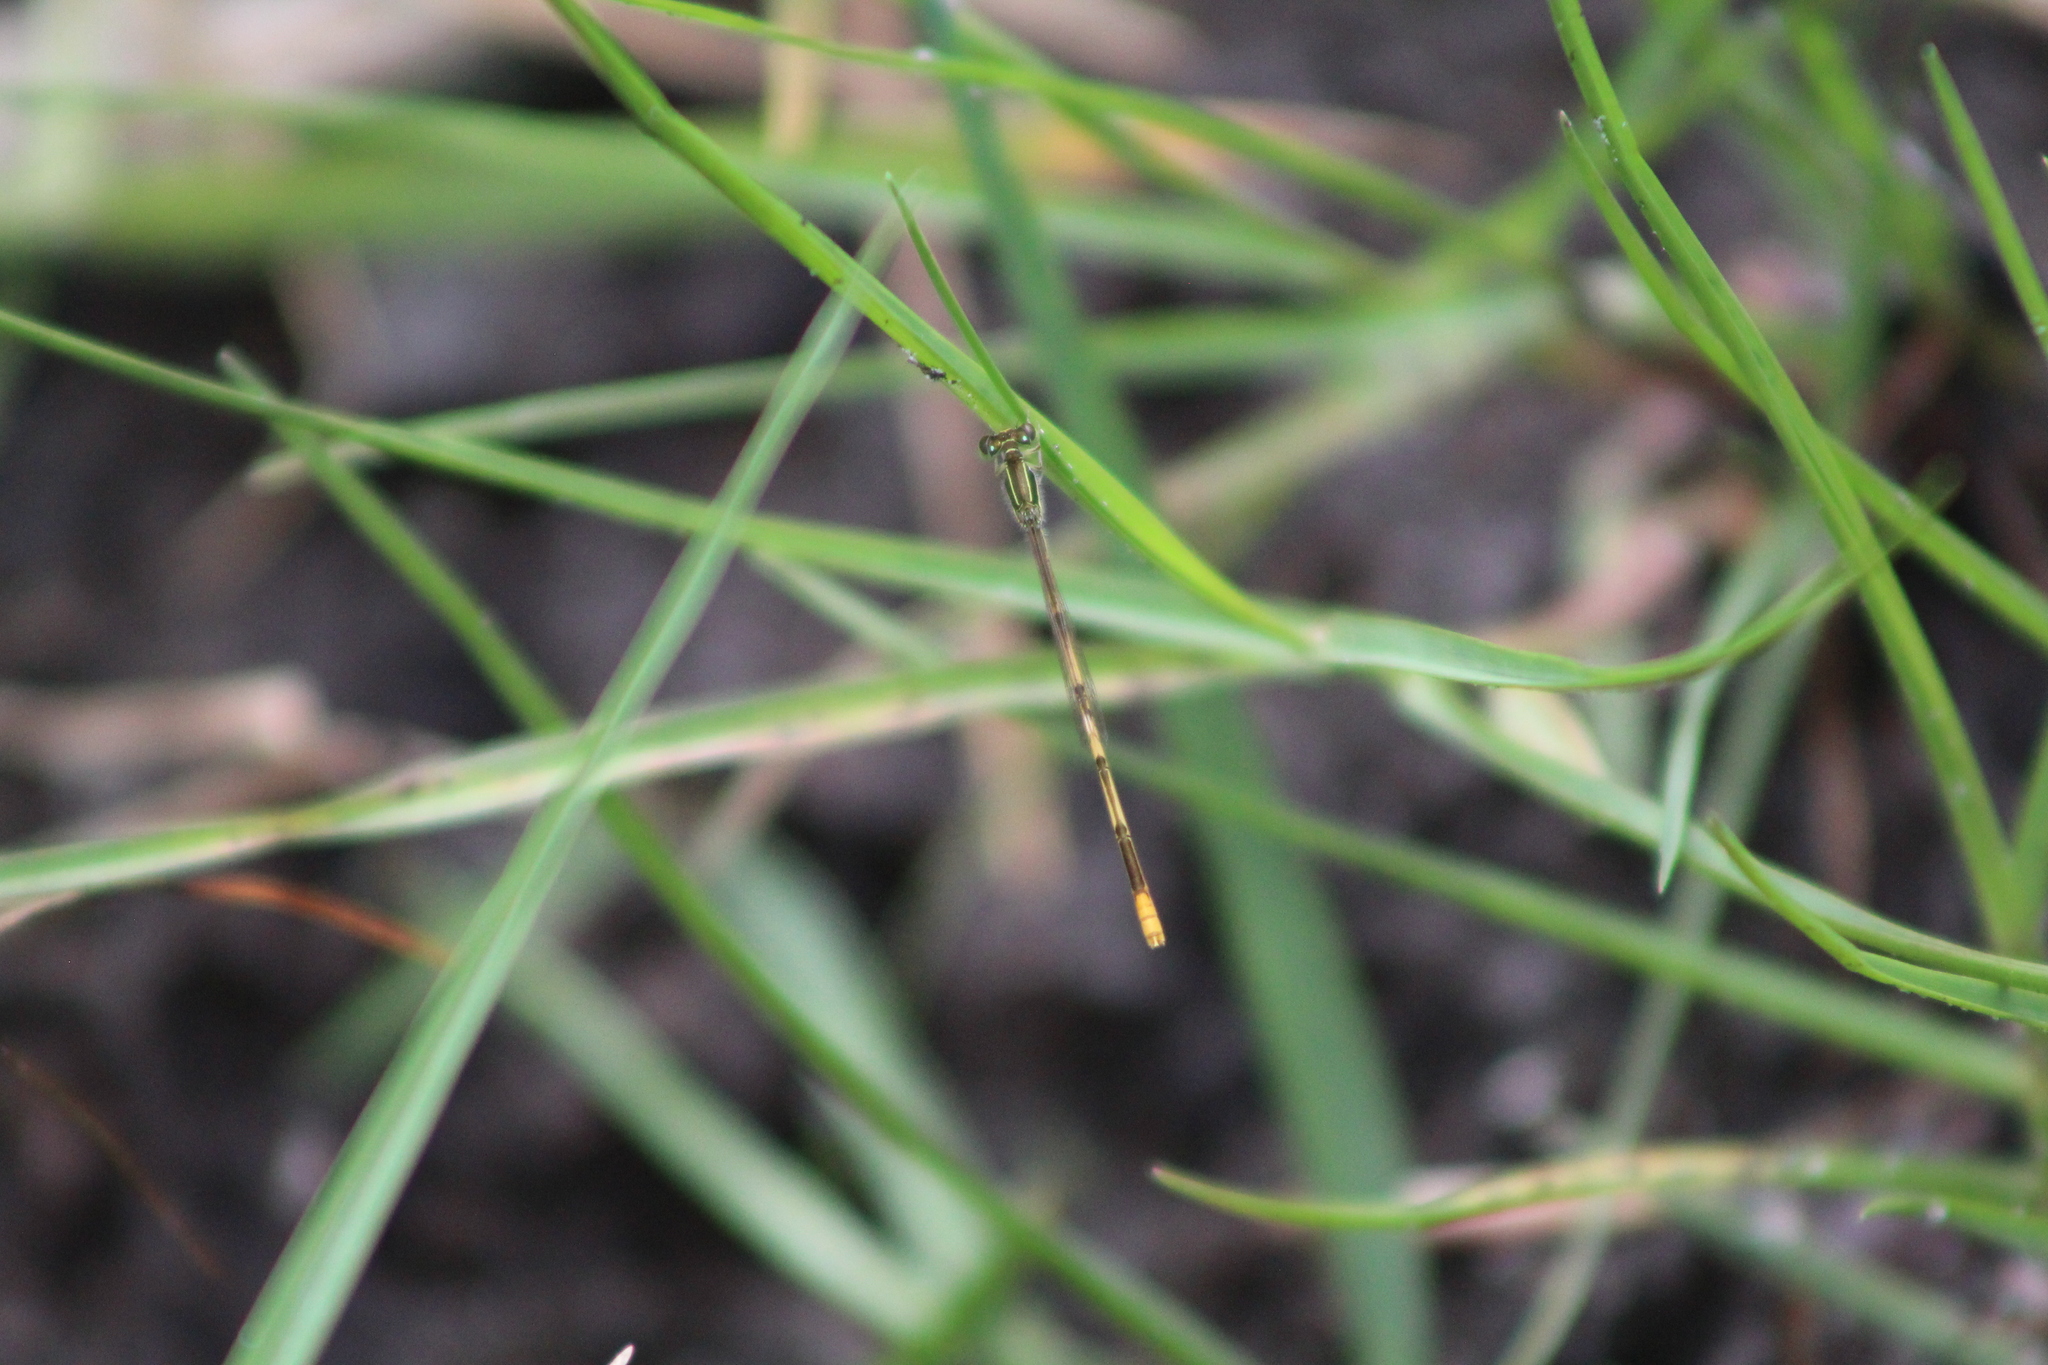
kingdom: Animalia
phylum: Arthropoda
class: Insecta
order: Odonata
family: Coenagrionidae
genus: Ischnura
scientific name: Ischnura hastata
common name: Citrine forktail
